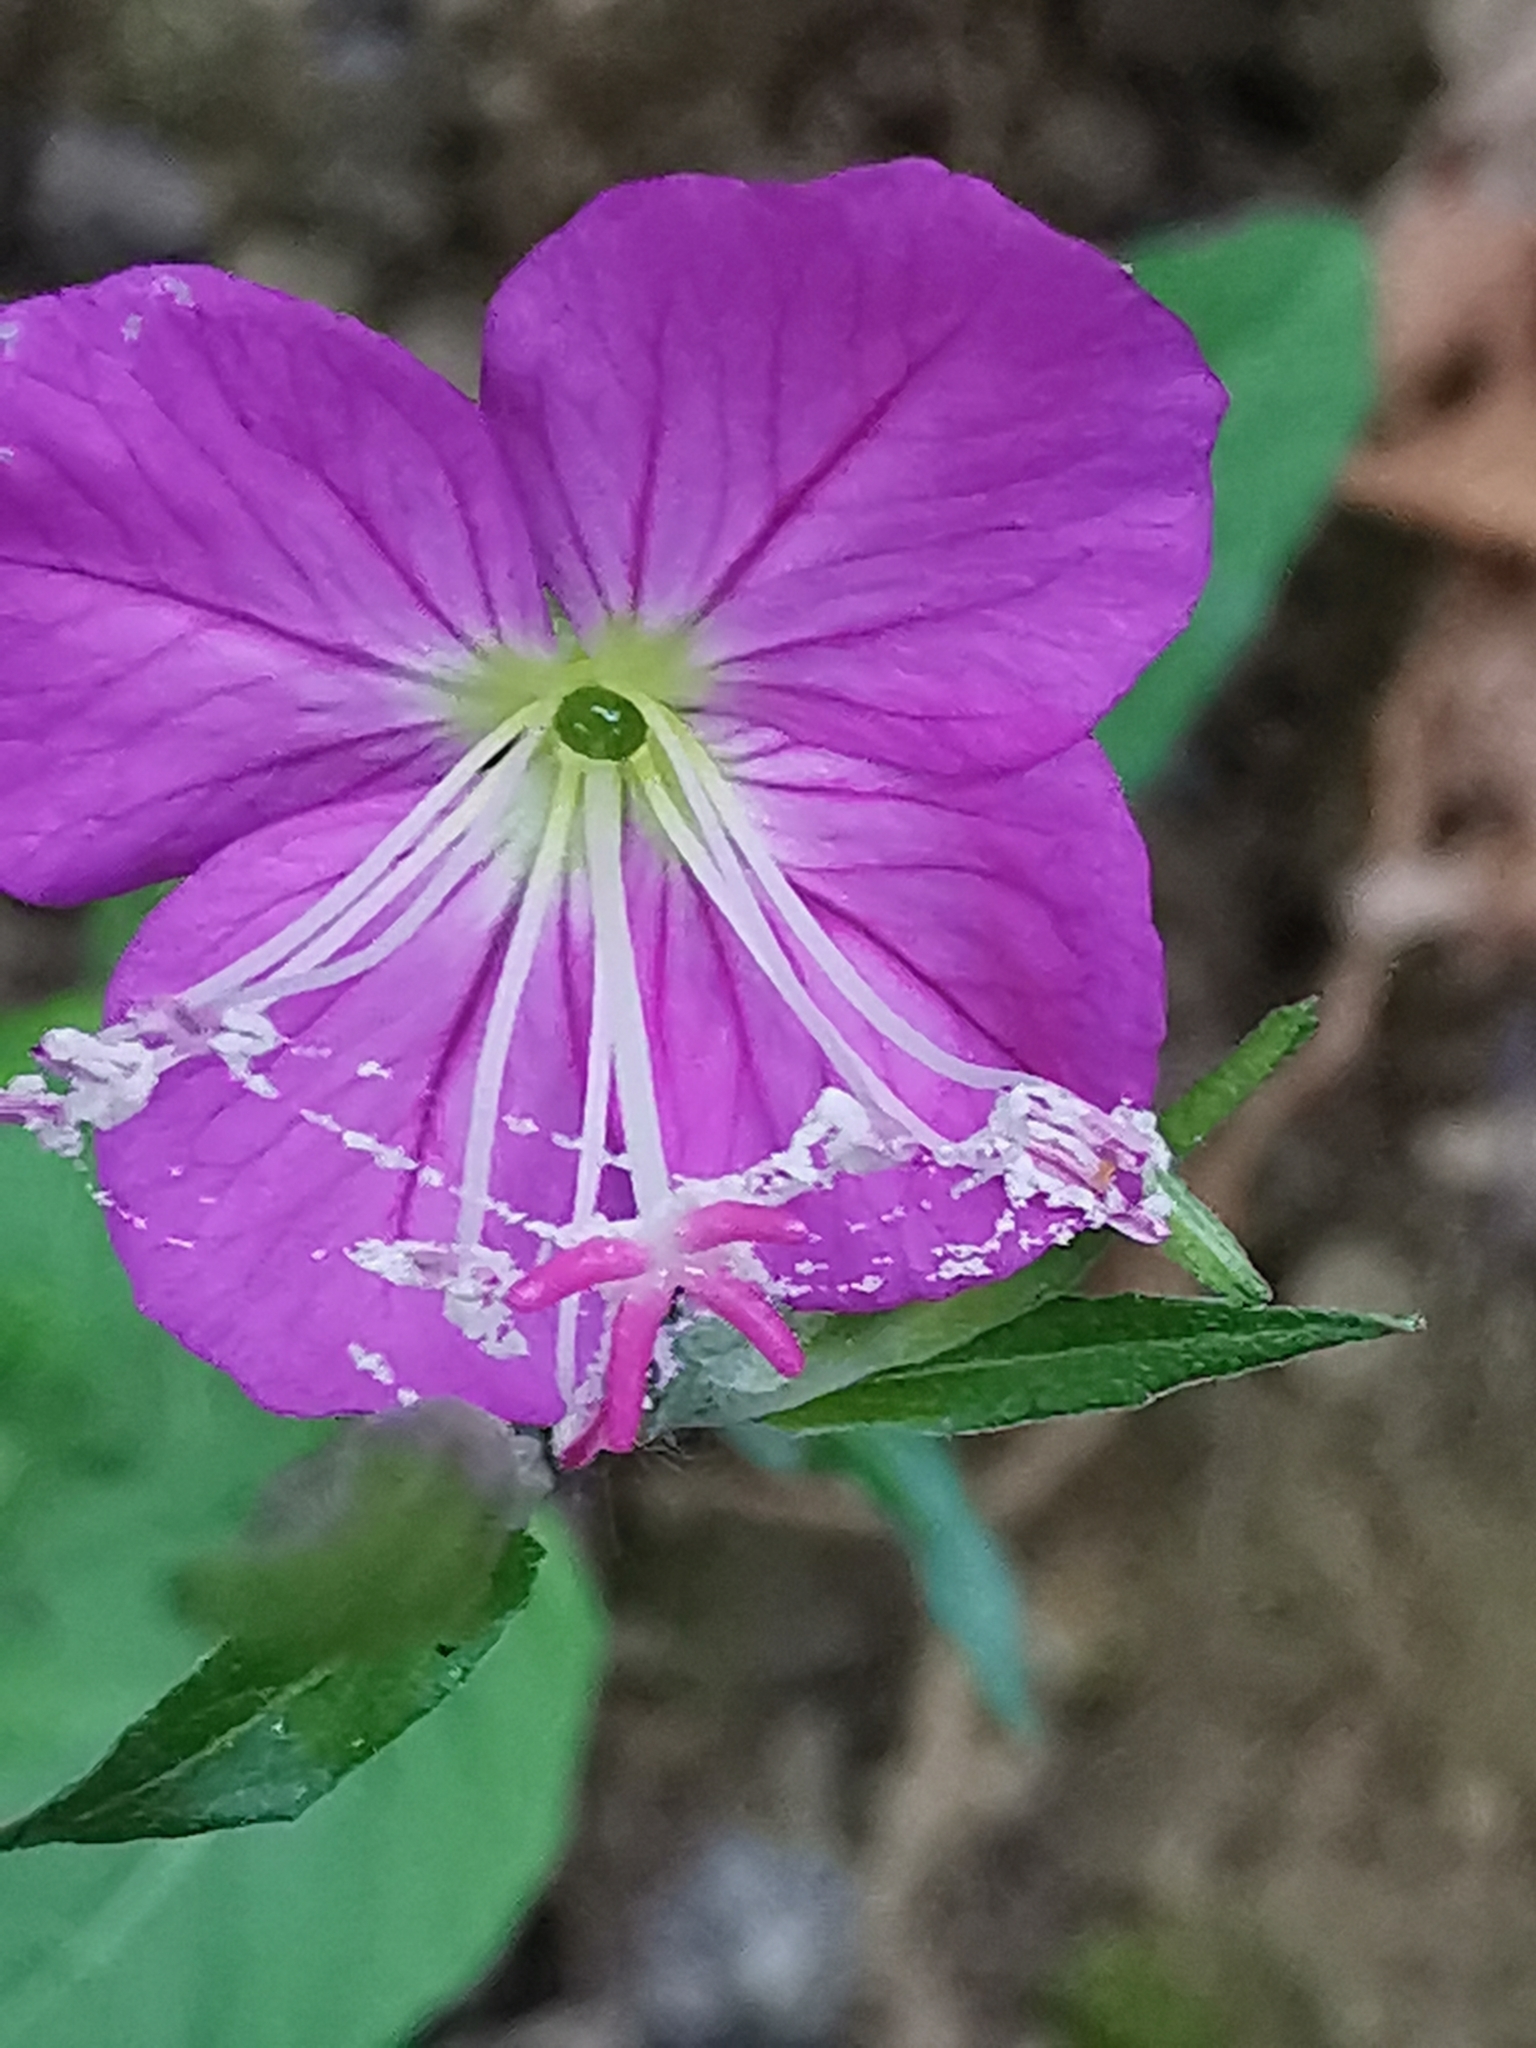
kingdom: Plantae
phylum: Tracheophyta
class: Magnoliopsida
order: Myrtales
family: Onagraceae
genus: Oenothera
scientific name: Oenothera rosea
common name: Rosy evening-primrose
